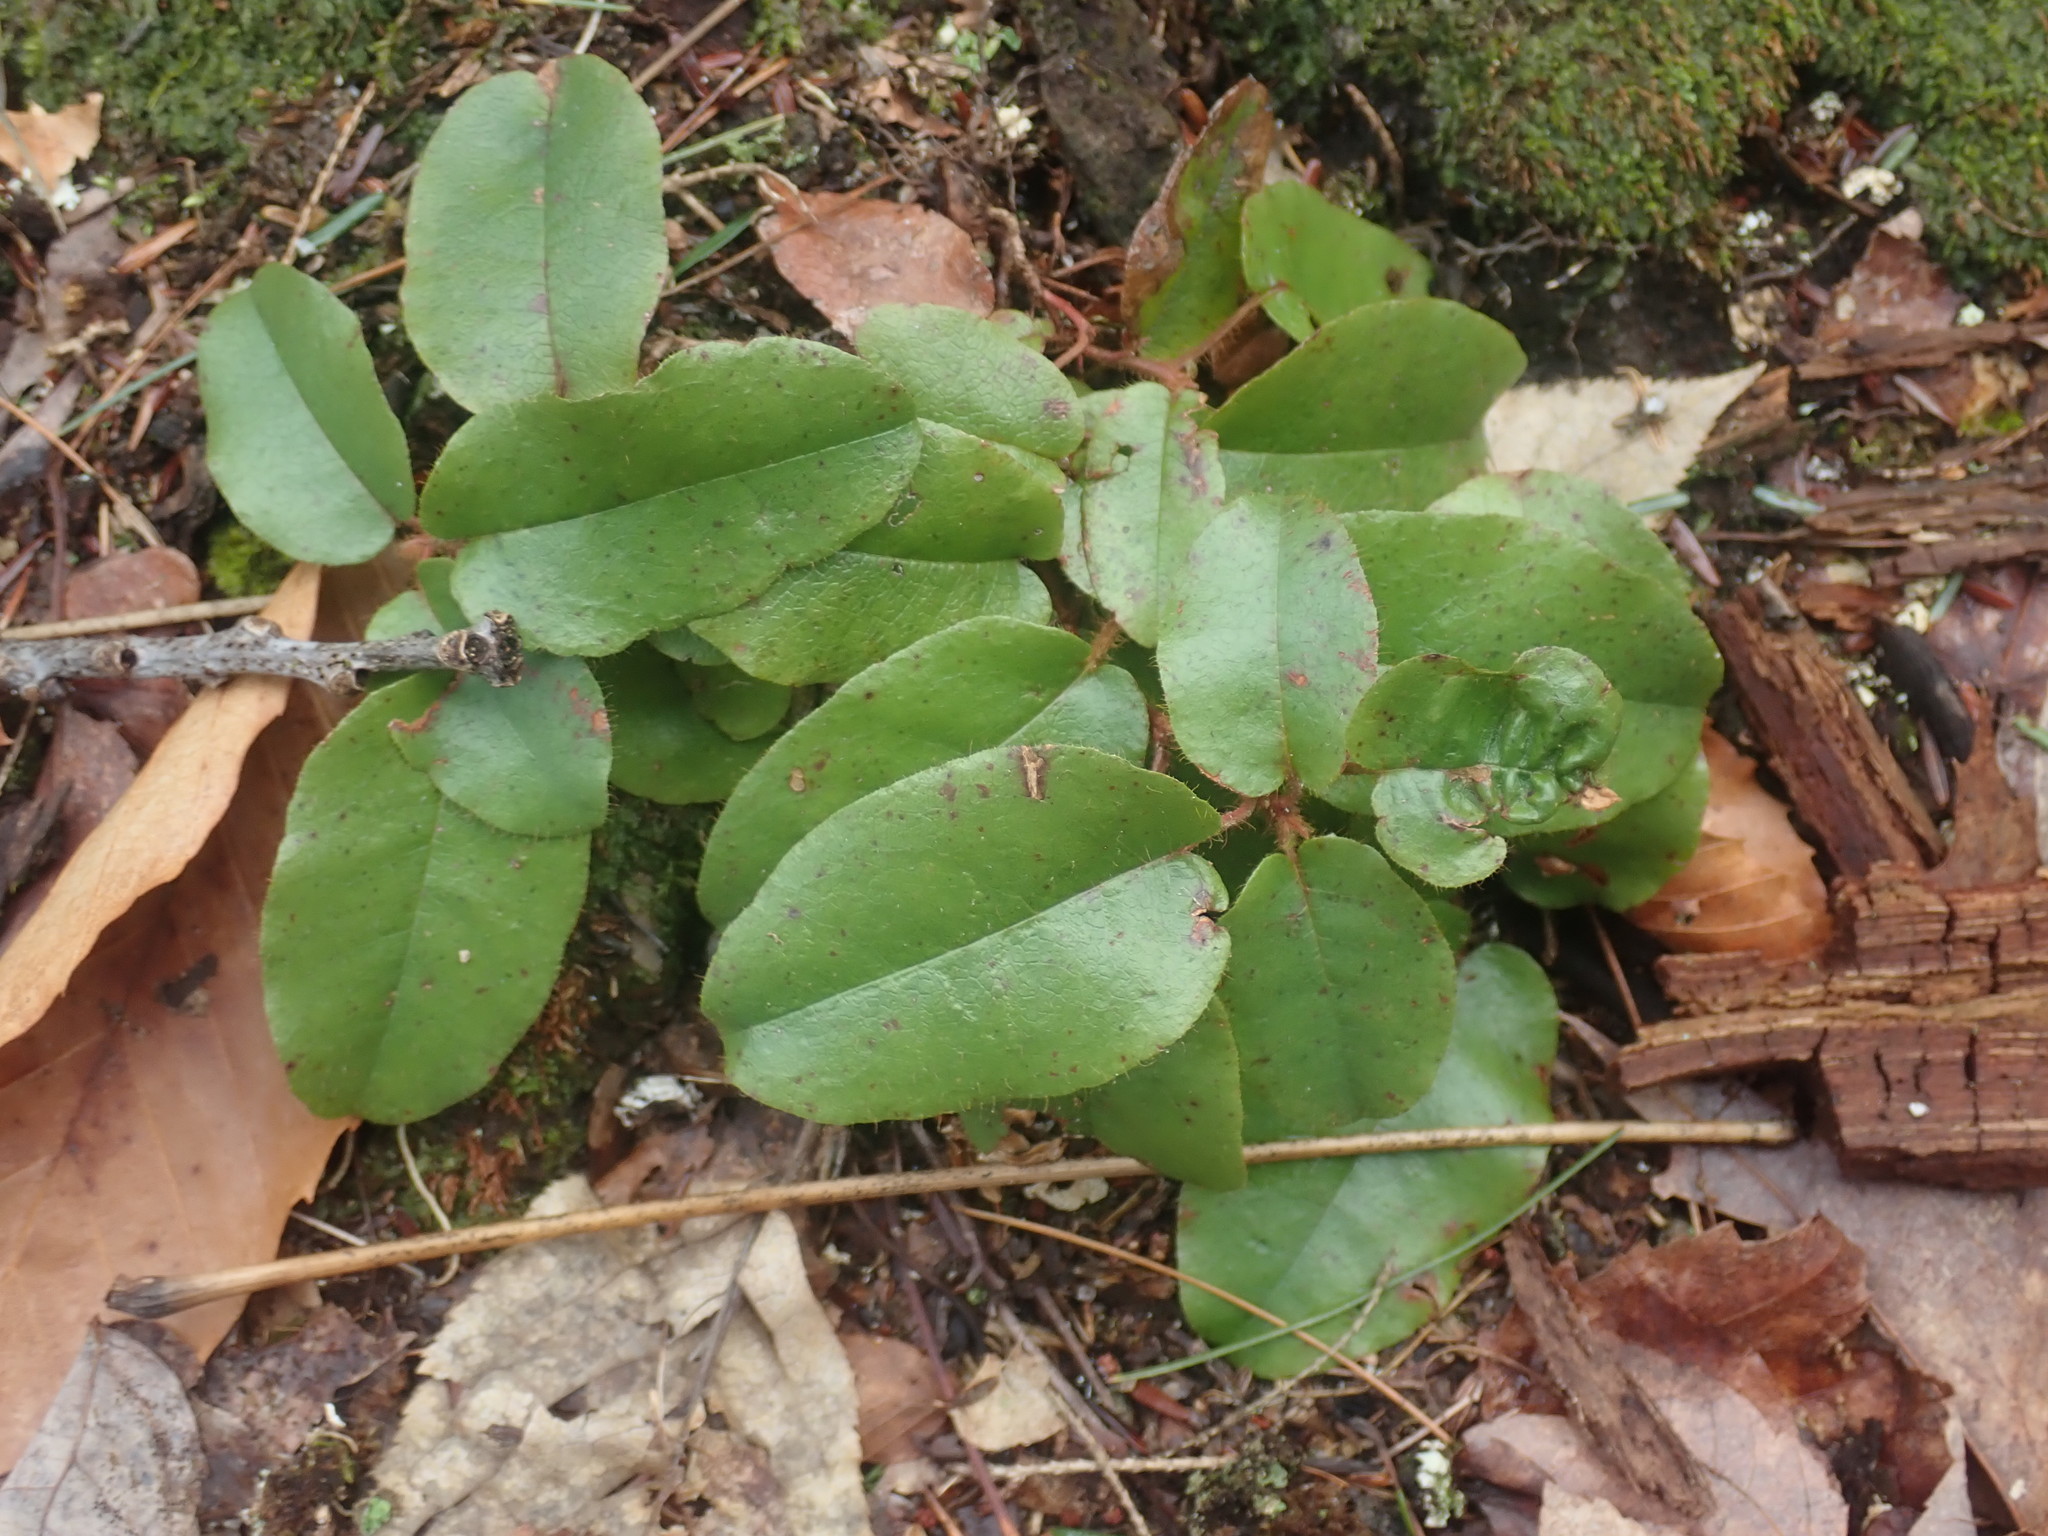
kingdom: Plantae
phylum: Tracheophyta
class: Magnoliopsida
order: Ericales
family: Ericaceae
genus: Epigaea
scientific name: Epigaea repens
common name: Gravelroot
